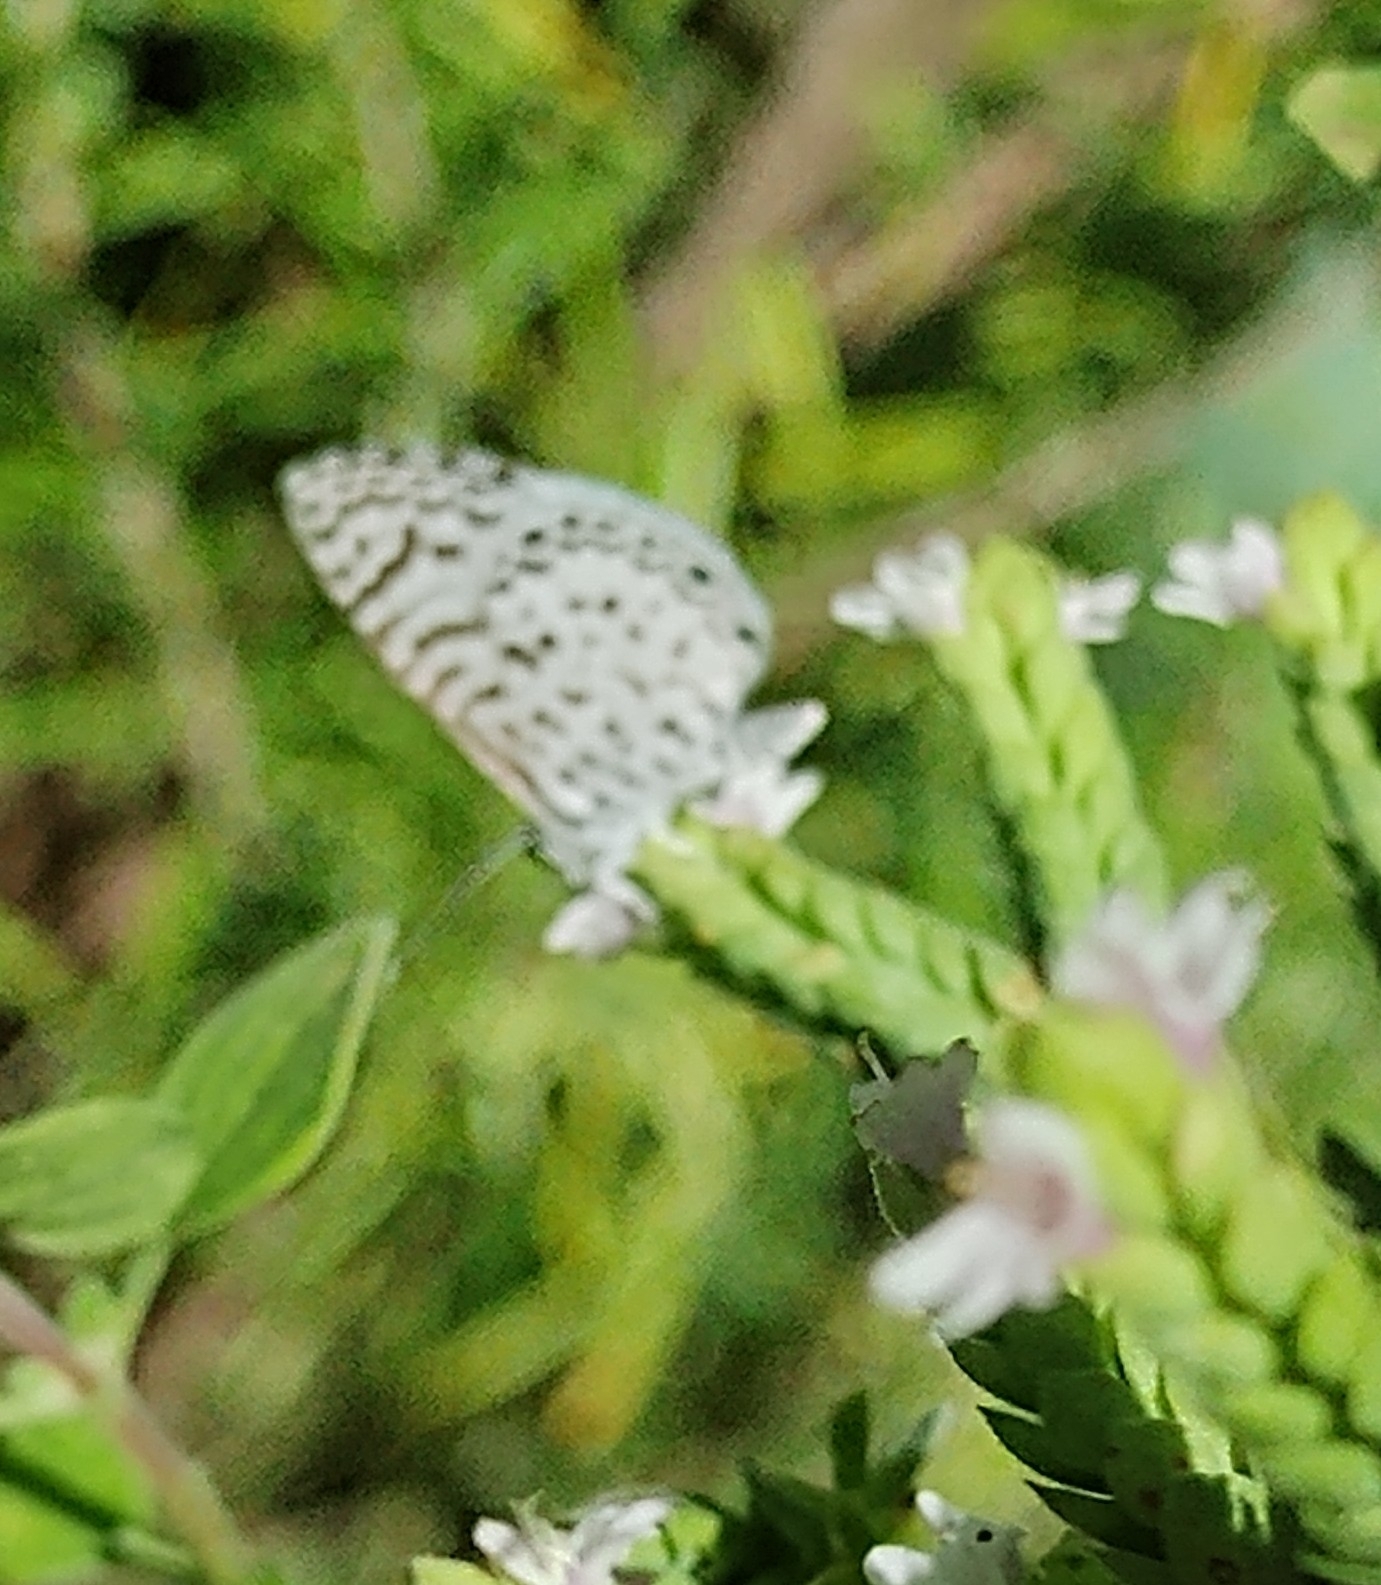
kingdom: Animalia
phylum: Arthropoda
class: Insecta
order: Lepidoptera
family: Lycaenidae
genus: Leptotes
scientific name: Leptotes cassius
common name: Cassius blue
